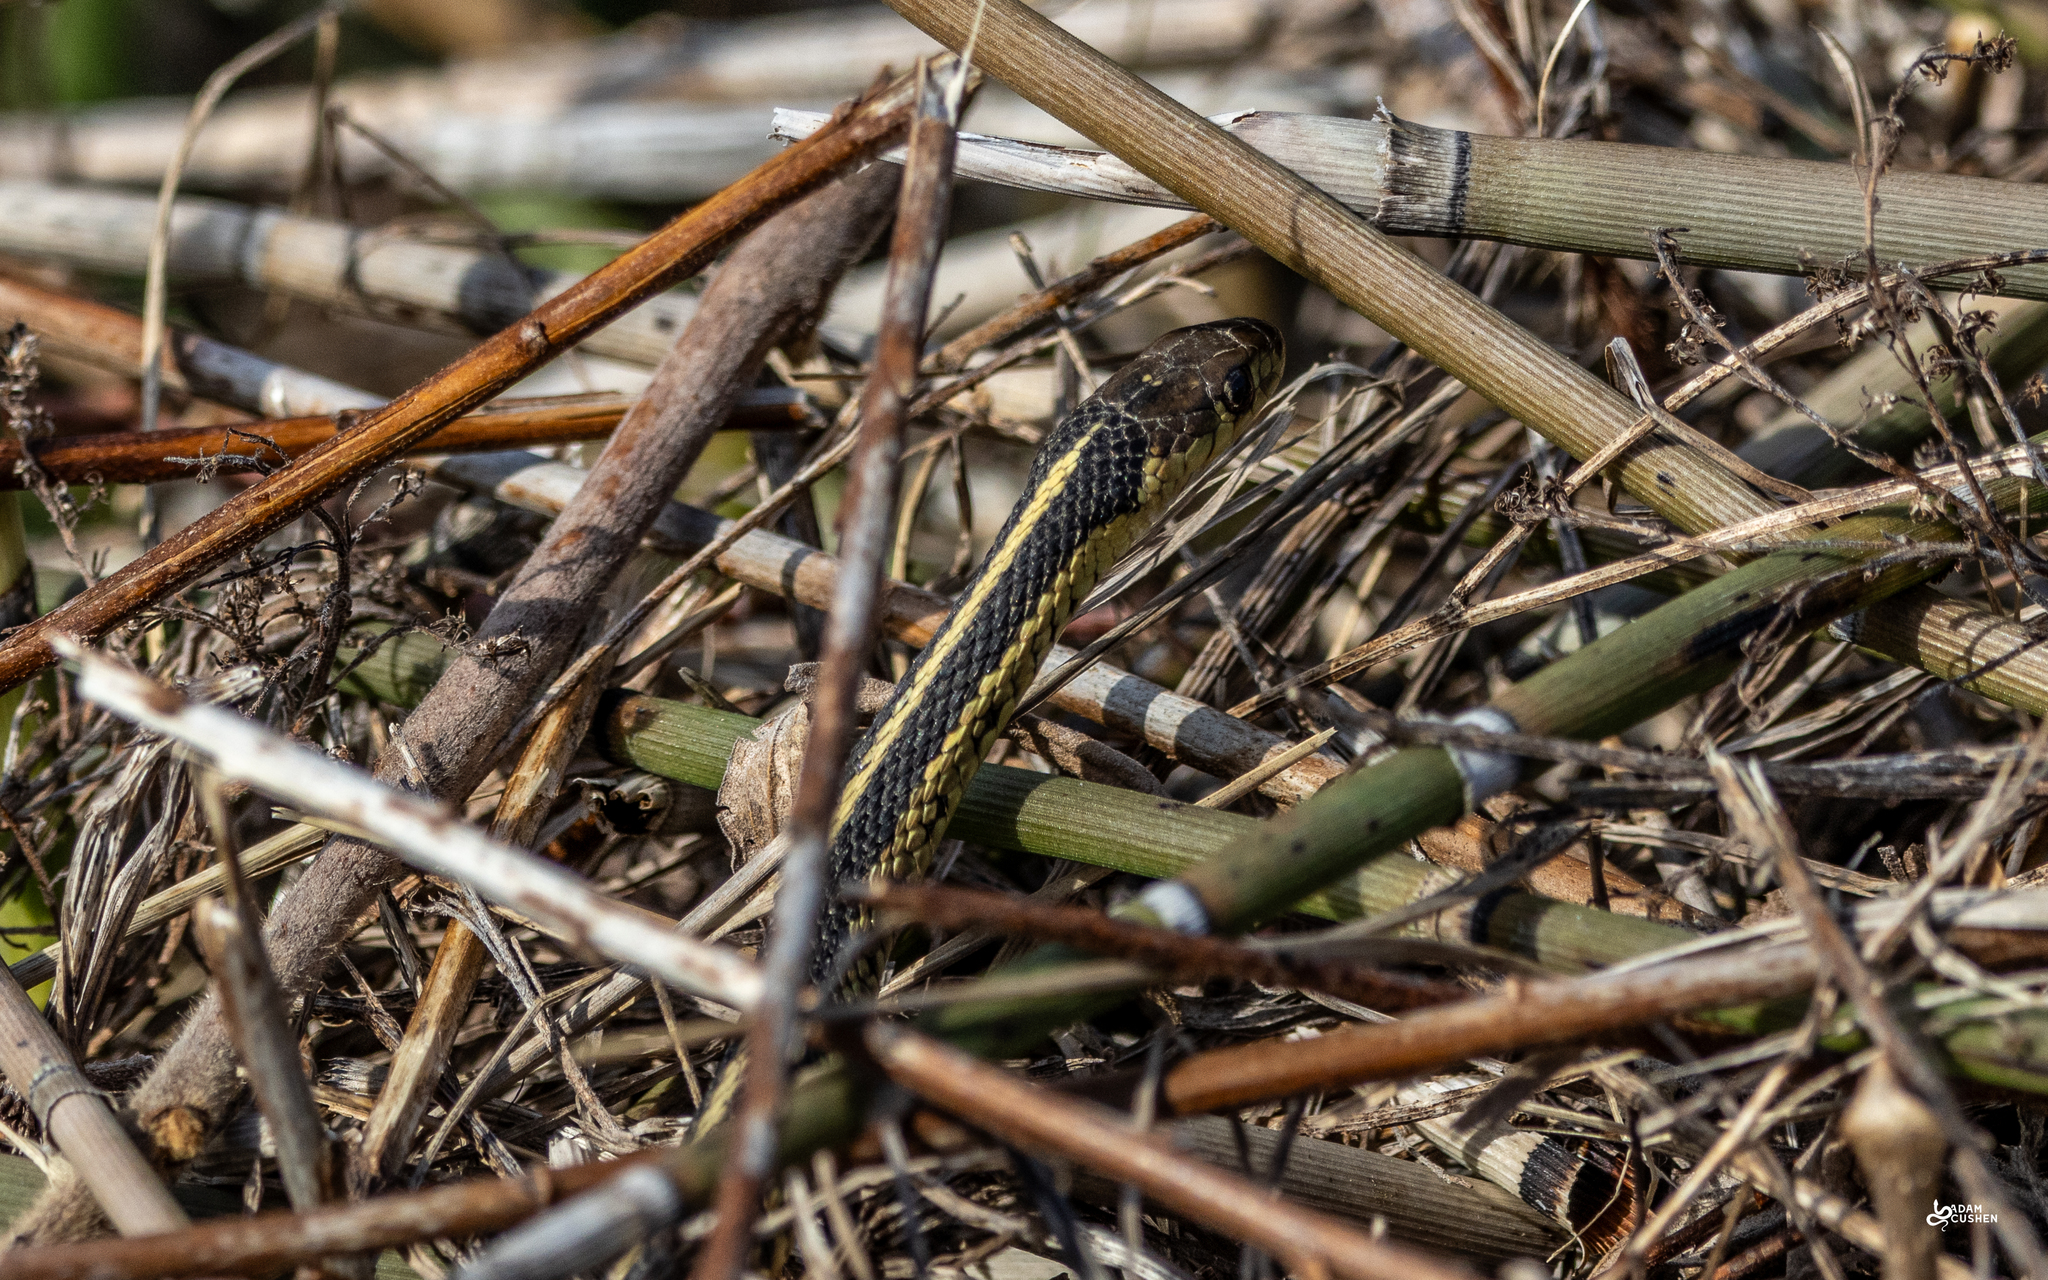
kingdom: Animalia
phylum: Chordata
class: Squamata
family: Colubridae
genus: Thamnophis
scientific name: Thamnophis sirtalis
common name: Common garter snake
